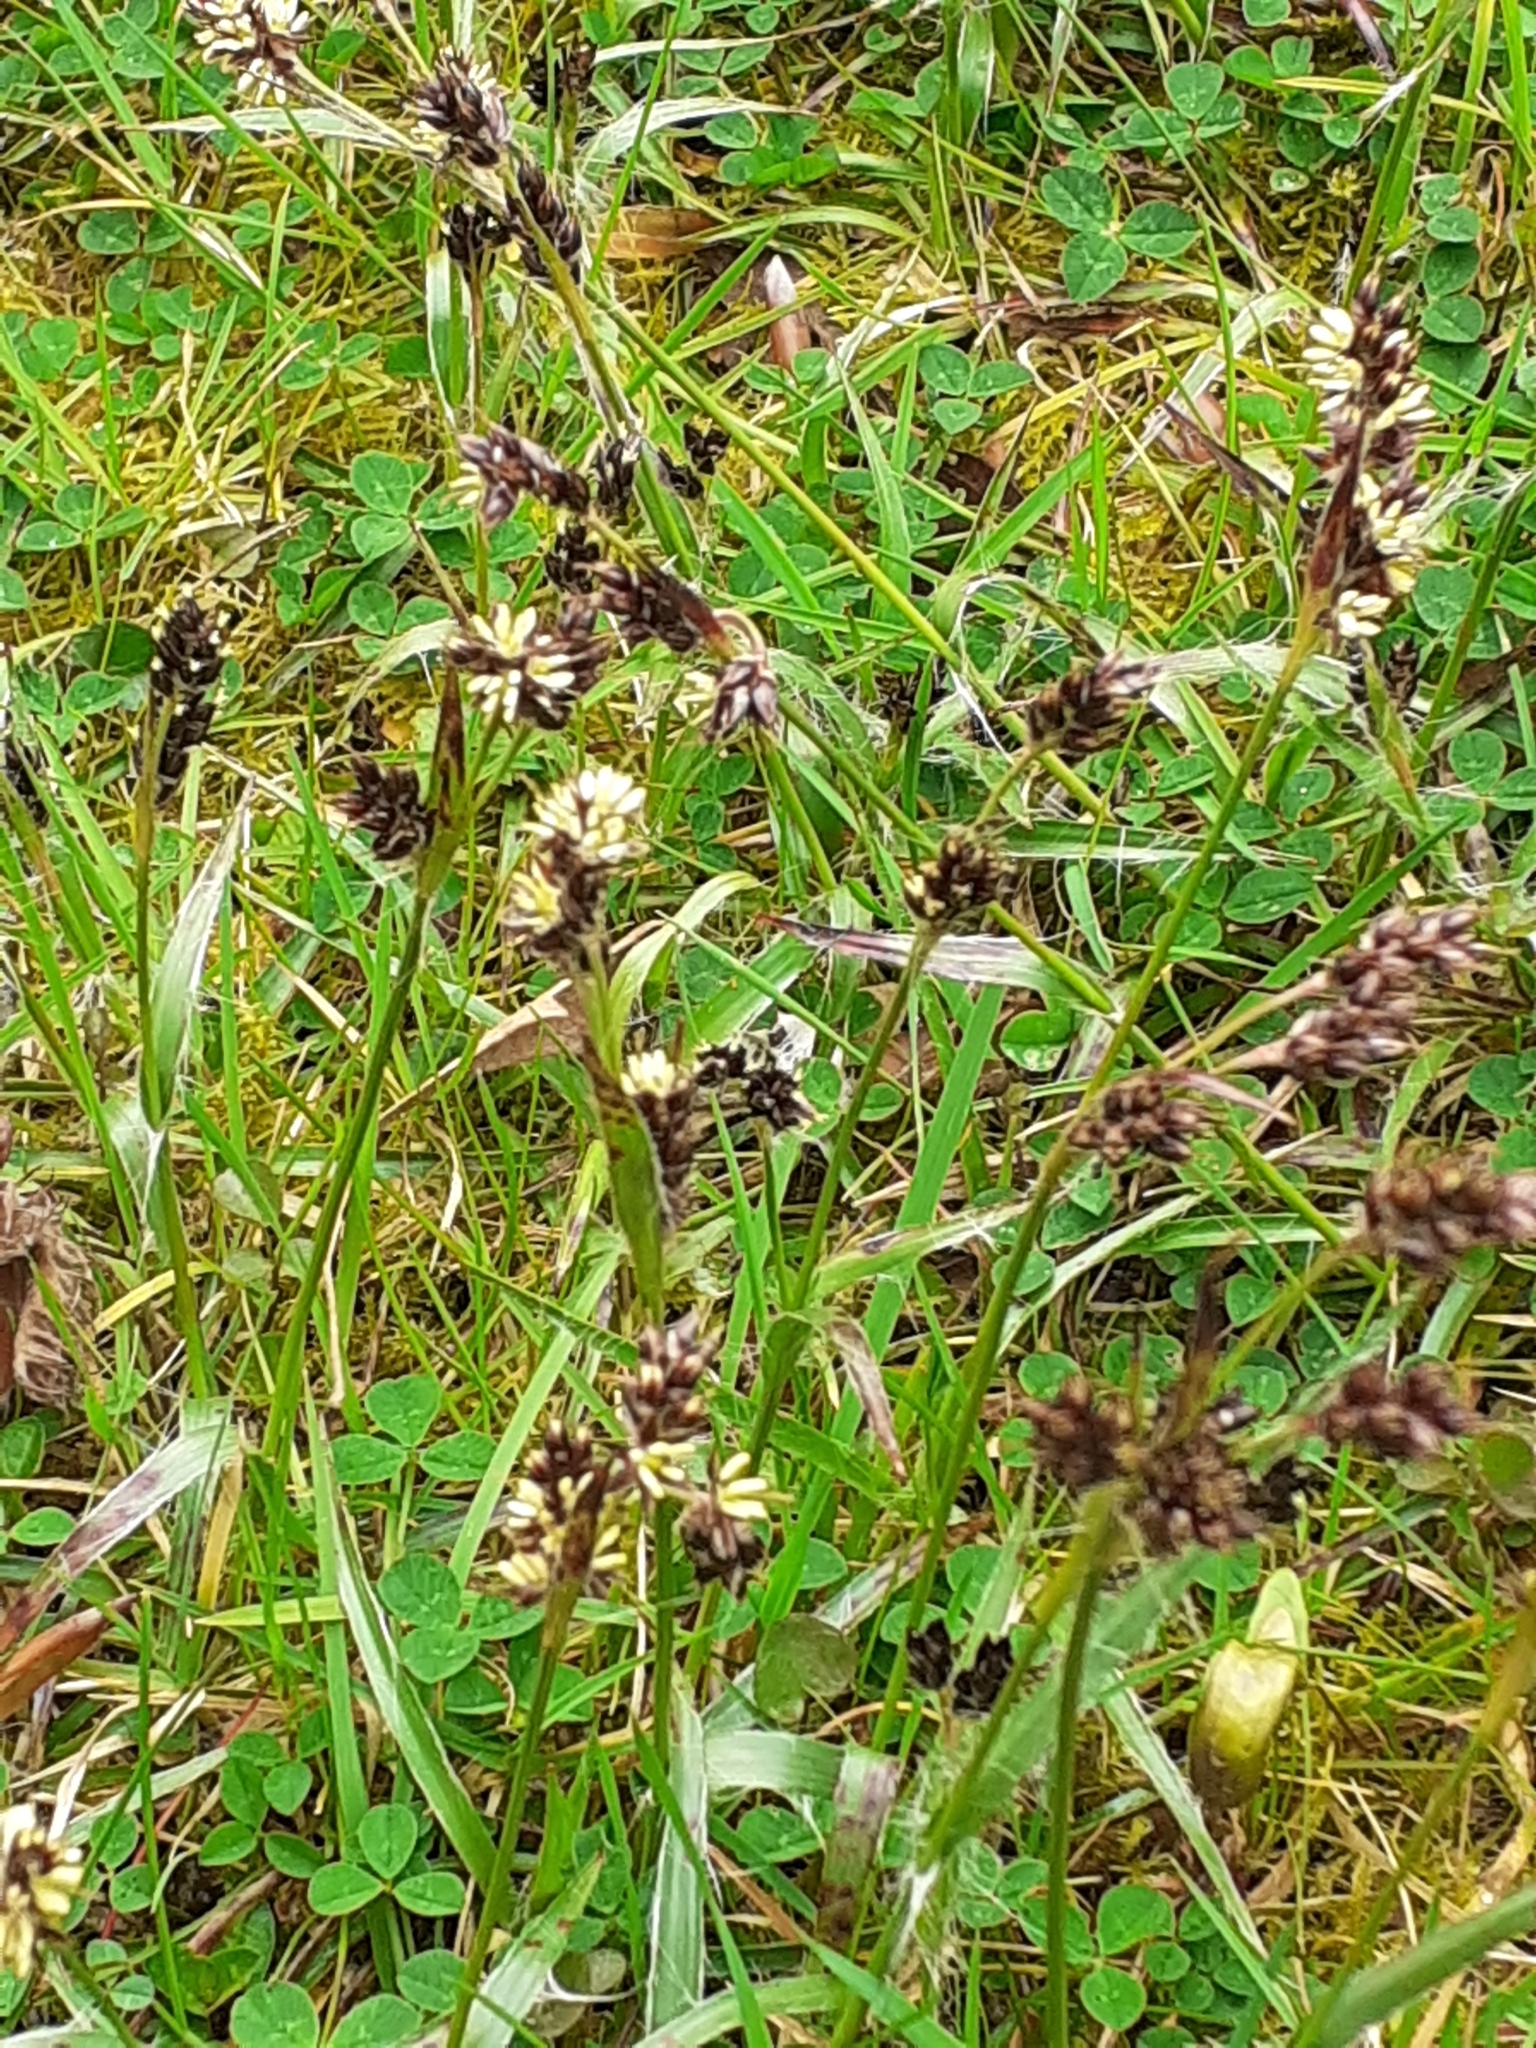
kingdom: Plantae
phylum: Tracheophyta
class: Liliopsida
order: Poales
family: Juncaceae
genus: Luzula
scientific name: Luzula campestris
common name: Field wood-rush
